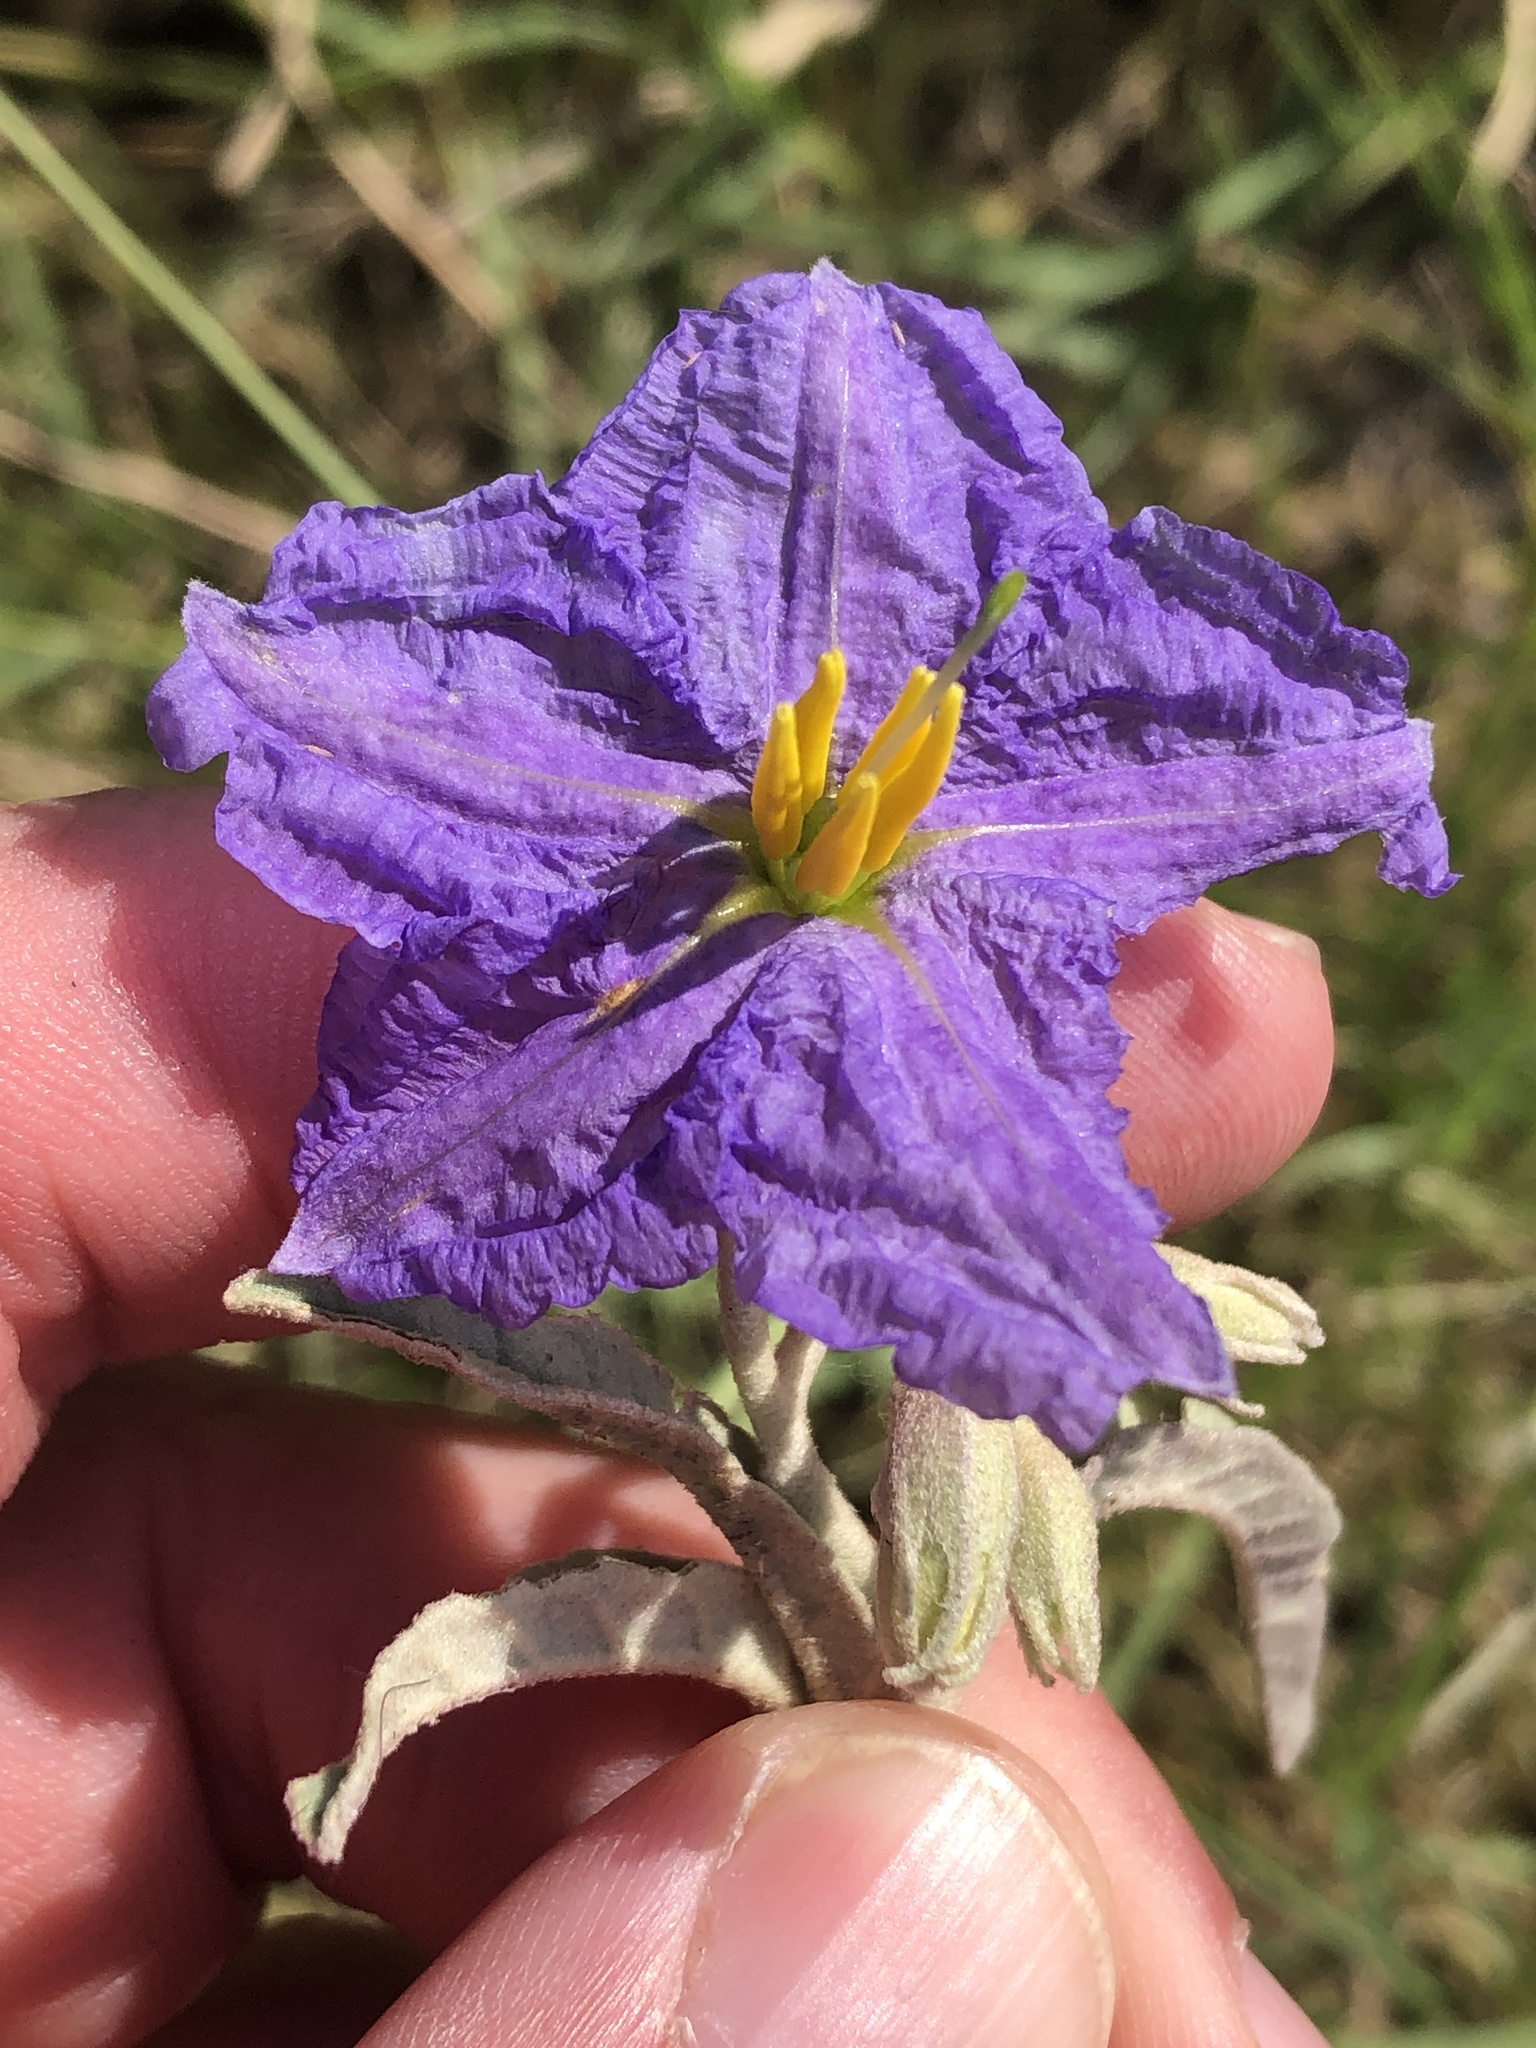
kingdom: Plantae
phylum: Tracheophyta
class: Magnoliopsida
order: Solanales
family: Solanaceae
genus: Solanum
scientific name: Solanum elaeagnifolium
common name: Silverleaf nightshade
